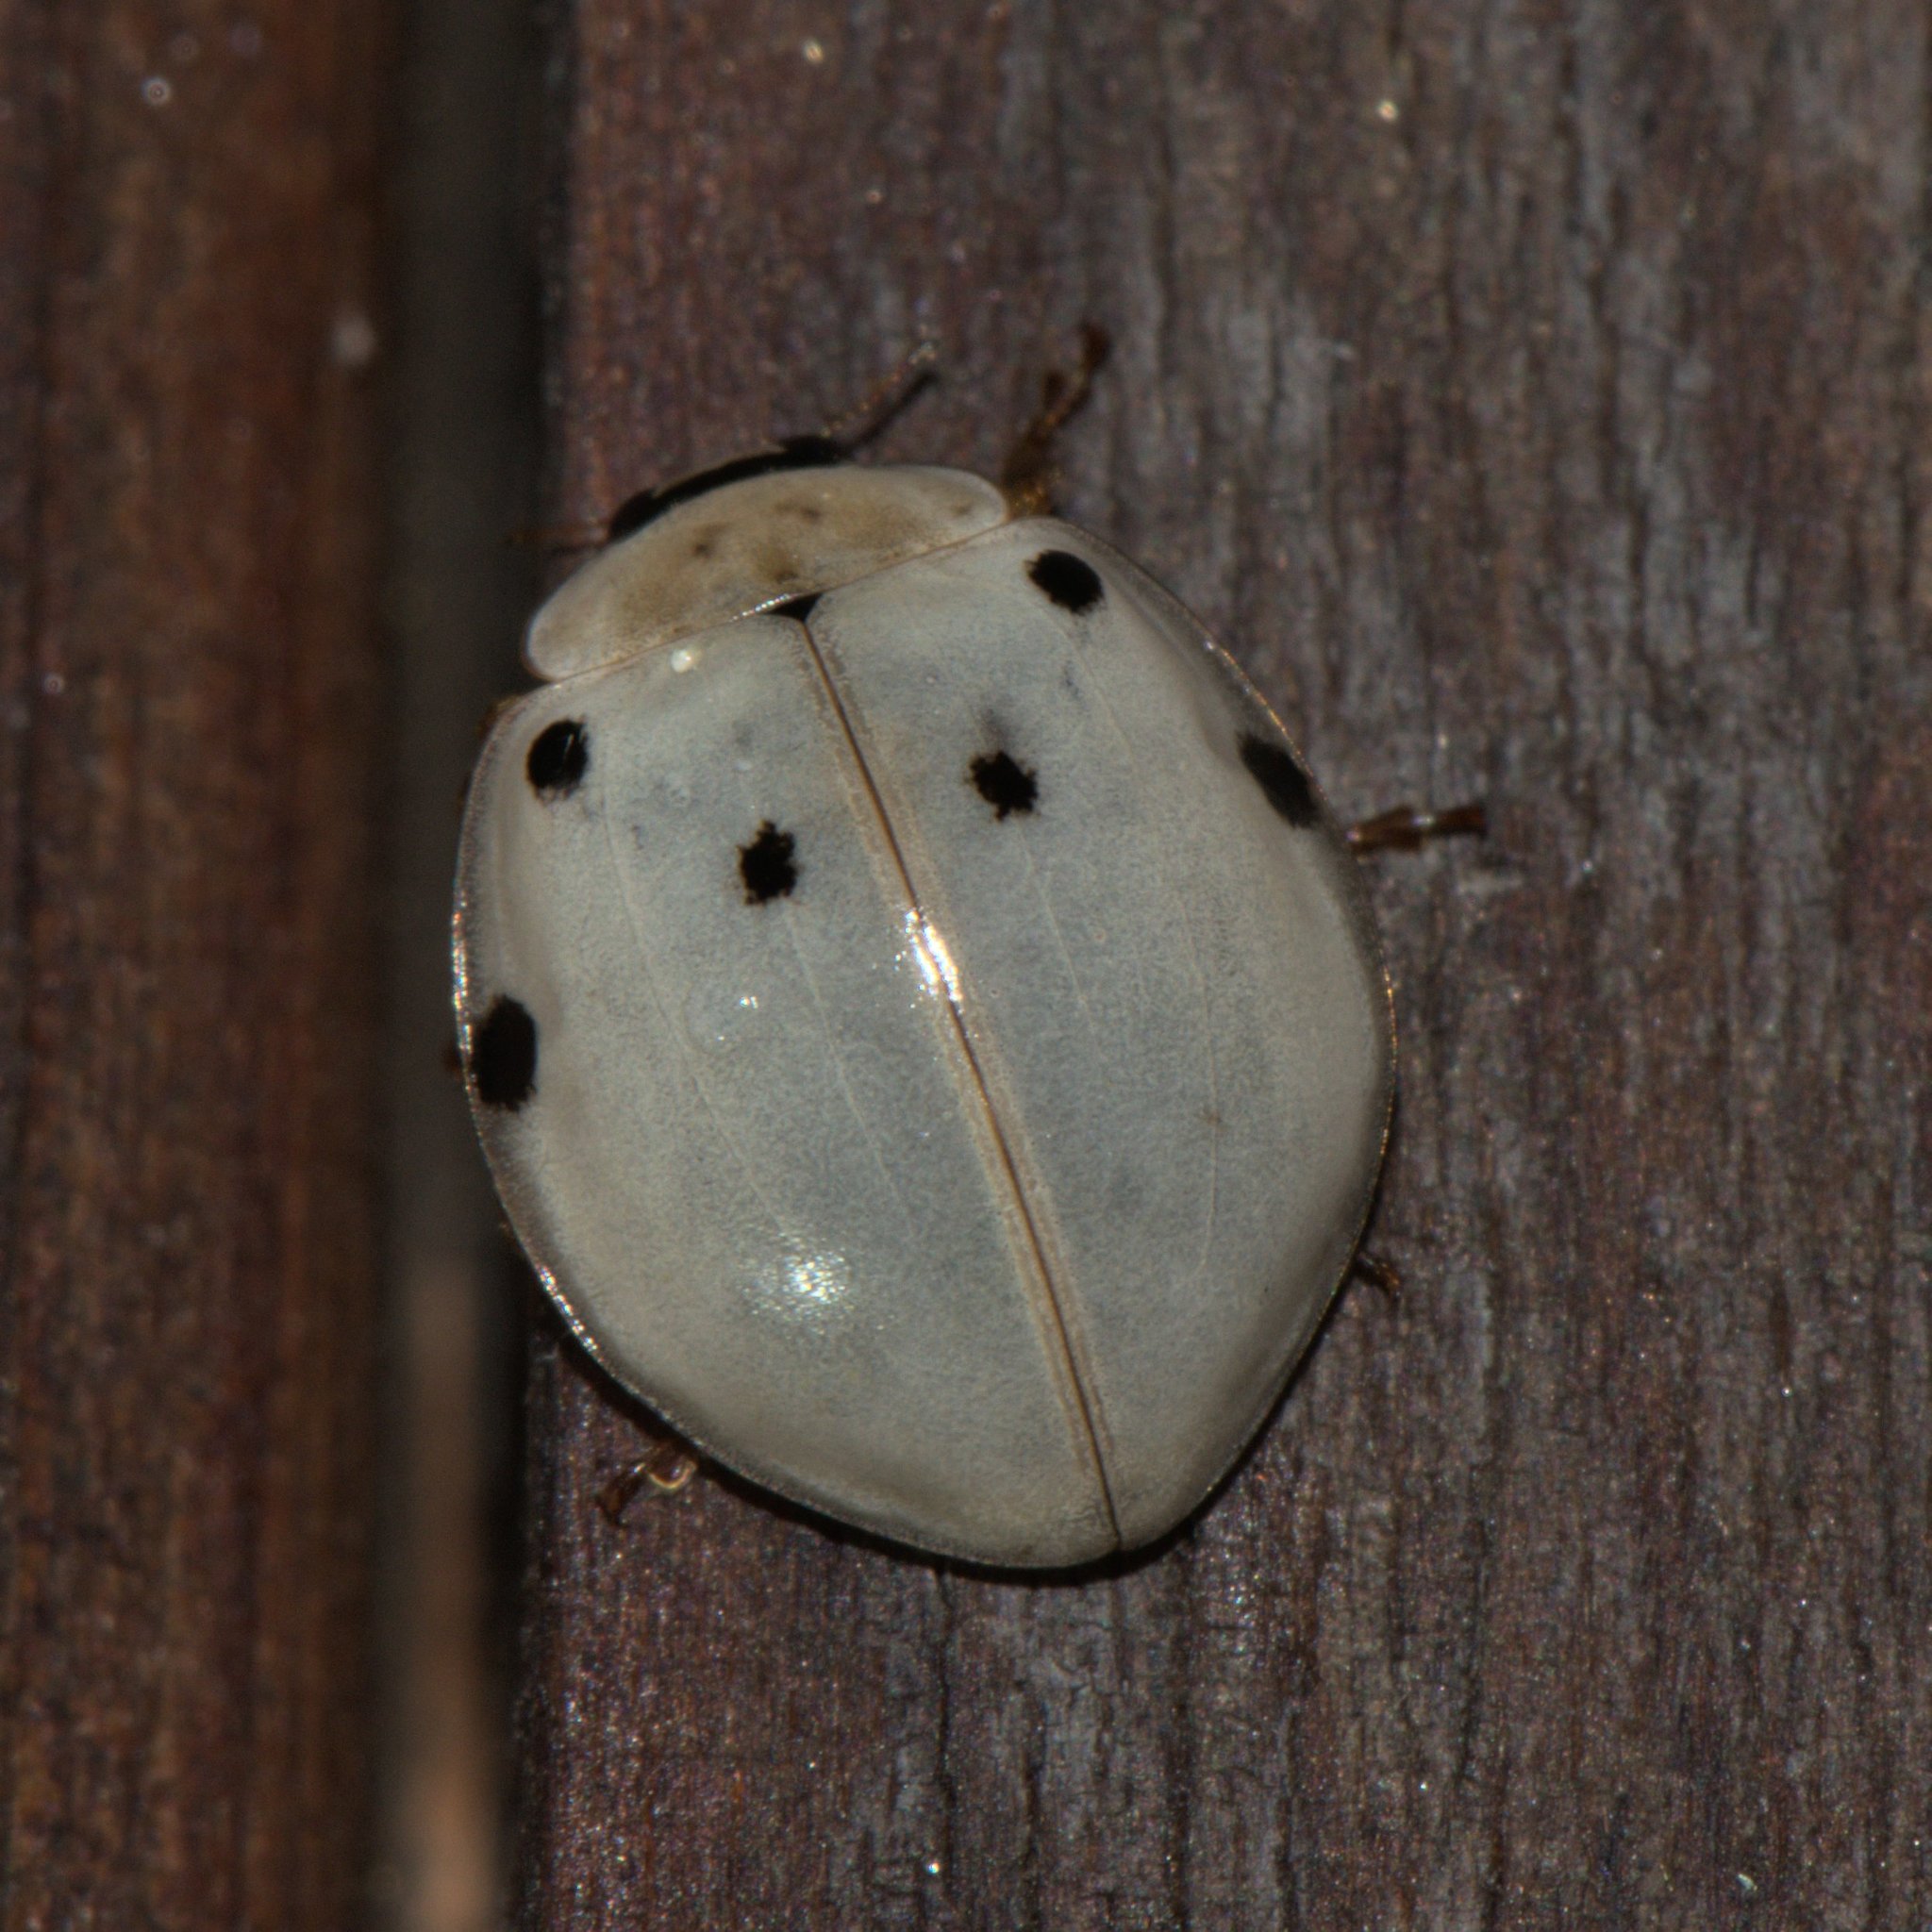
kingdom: Animalia
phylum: Arthropoda
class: Insecta
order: Coleoptera
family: Coccinellidae
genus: Harmonia
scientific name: Harmonia eucharis
